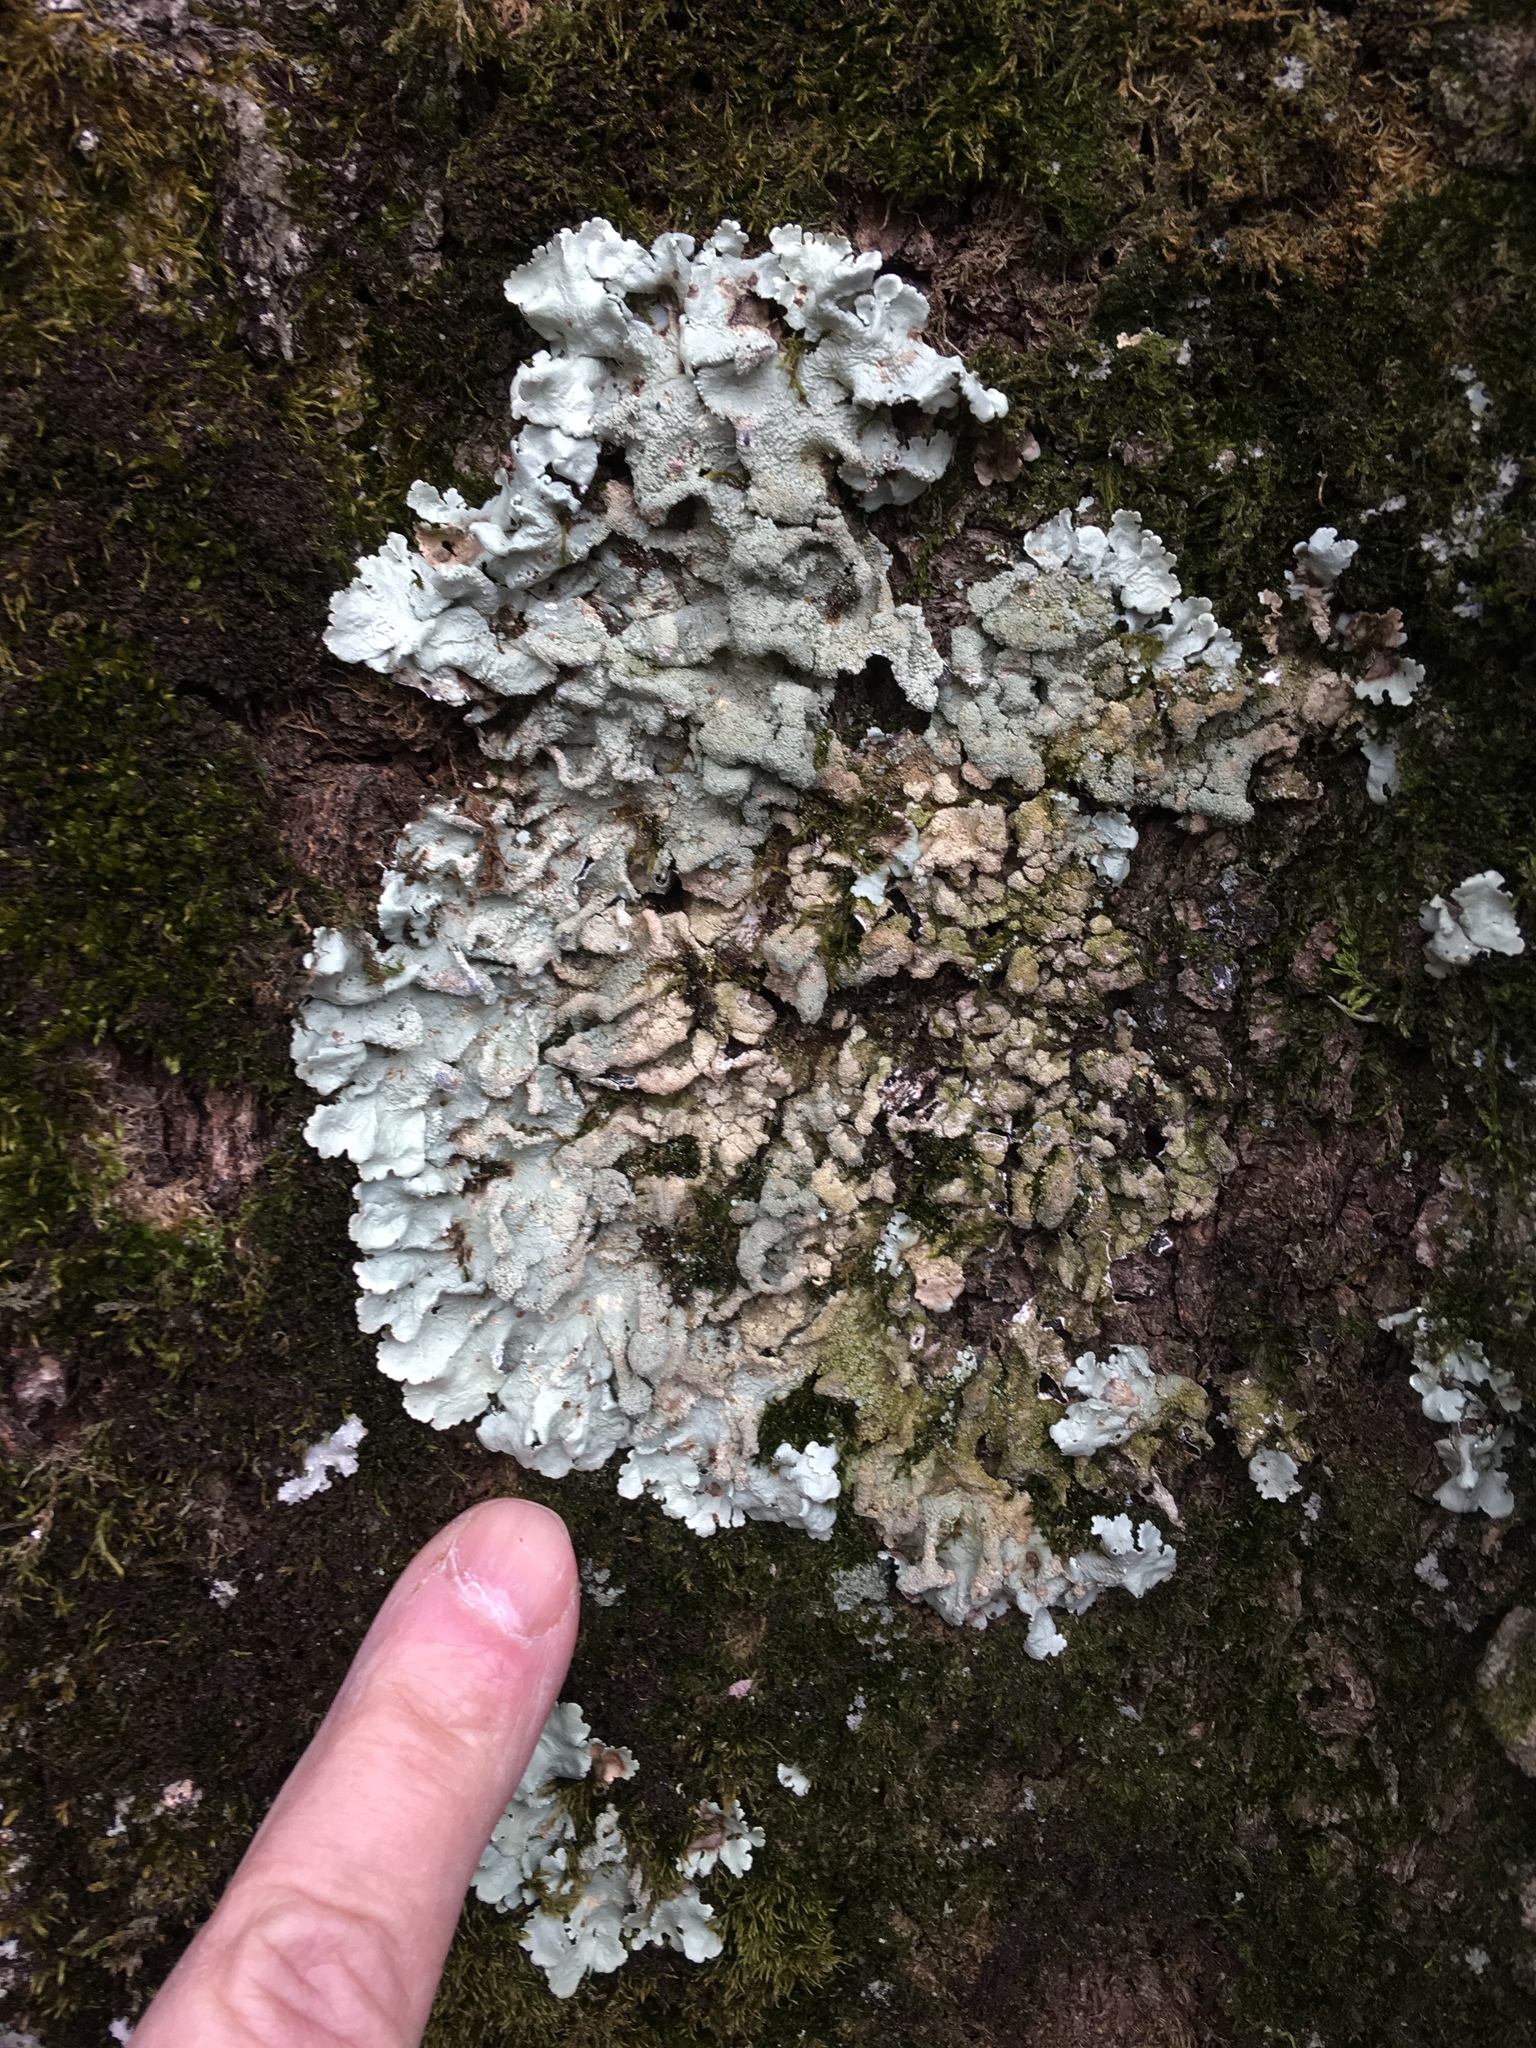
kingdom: Fungi
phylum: Ascomycota
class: Lecanoromycetes
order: Lecanorales
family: Parmeliaceae
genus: Flavoparmelia
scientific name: Flavoparmelia caperata
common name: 40-mile per hour lichen
